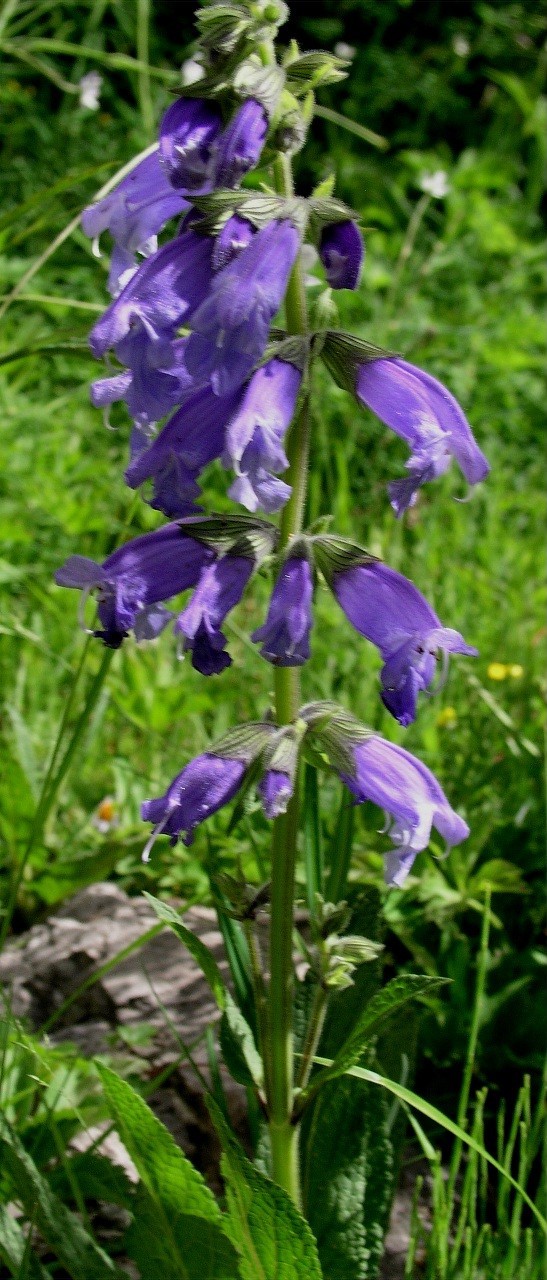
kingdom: Plantae
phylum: Tracheophyta
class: Magnoliopsida
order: Lamiales
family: Lamiaceae
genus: Salvia
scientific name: Salvia prattii
